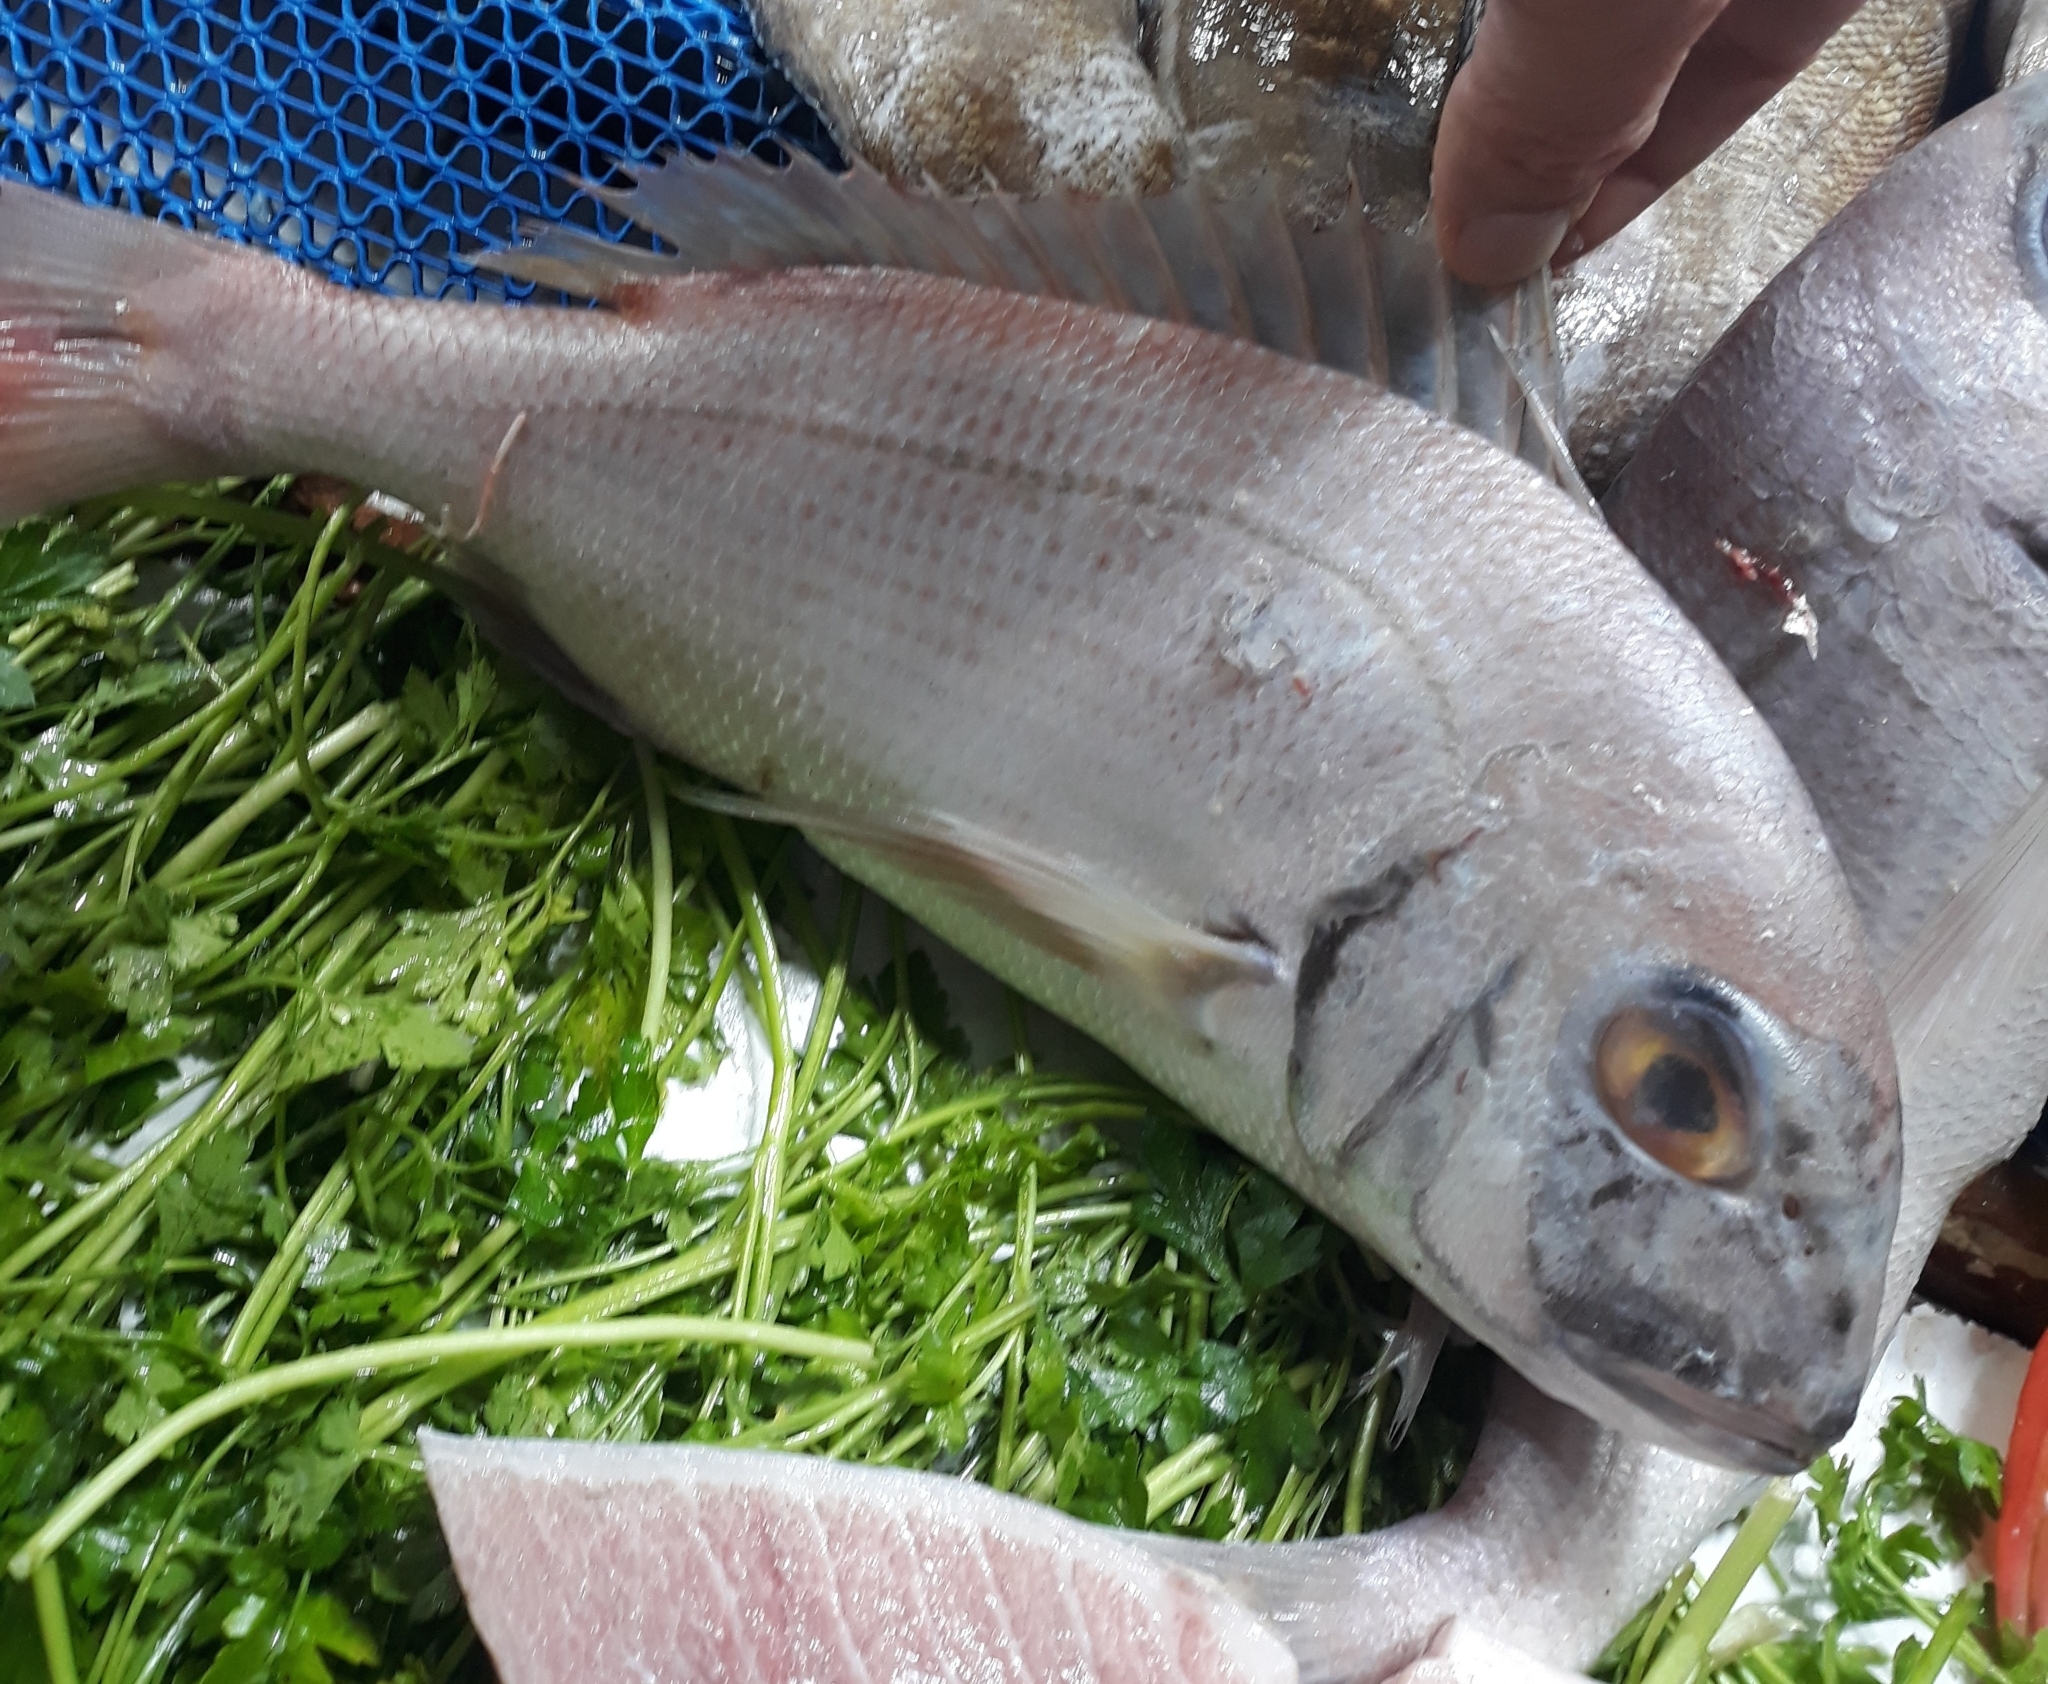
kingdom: Animalia
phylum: Chordata
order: Perciformes
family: Sparidae
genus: Pagrus
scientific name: Pagrus pagrus
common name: Red porgy
